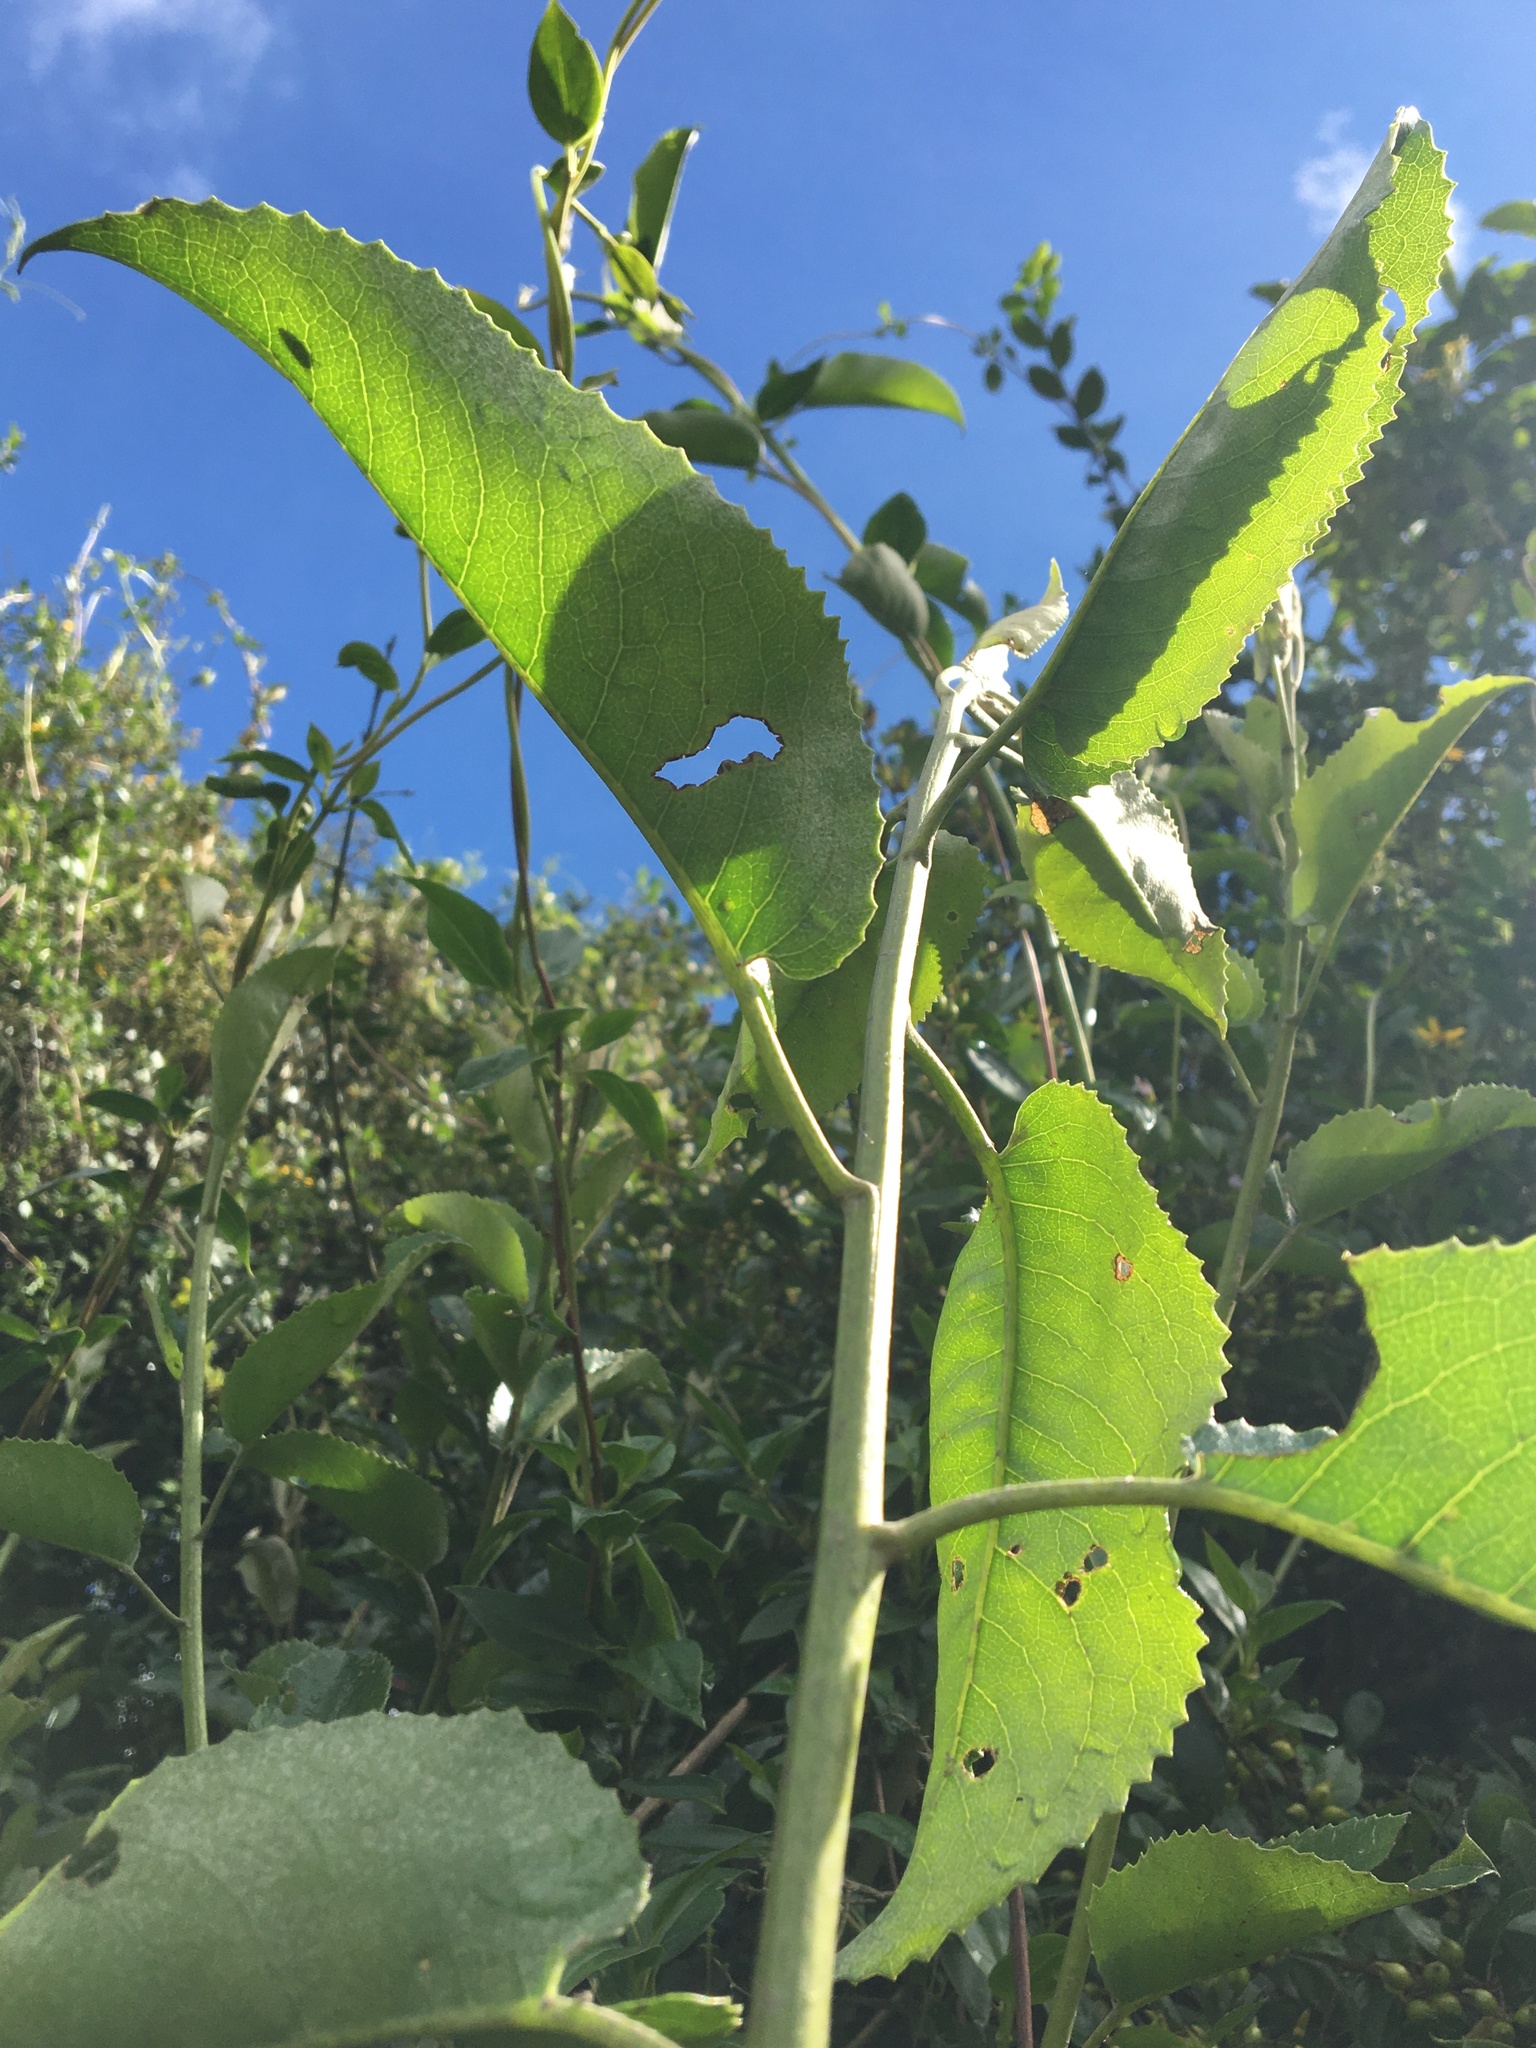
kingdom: Plantae
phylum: Tracheophyta
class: Magnoliopsida
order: Asterales
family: Asteraceae
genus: Dendrophorbium
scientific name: Dendrophorbium americanum
